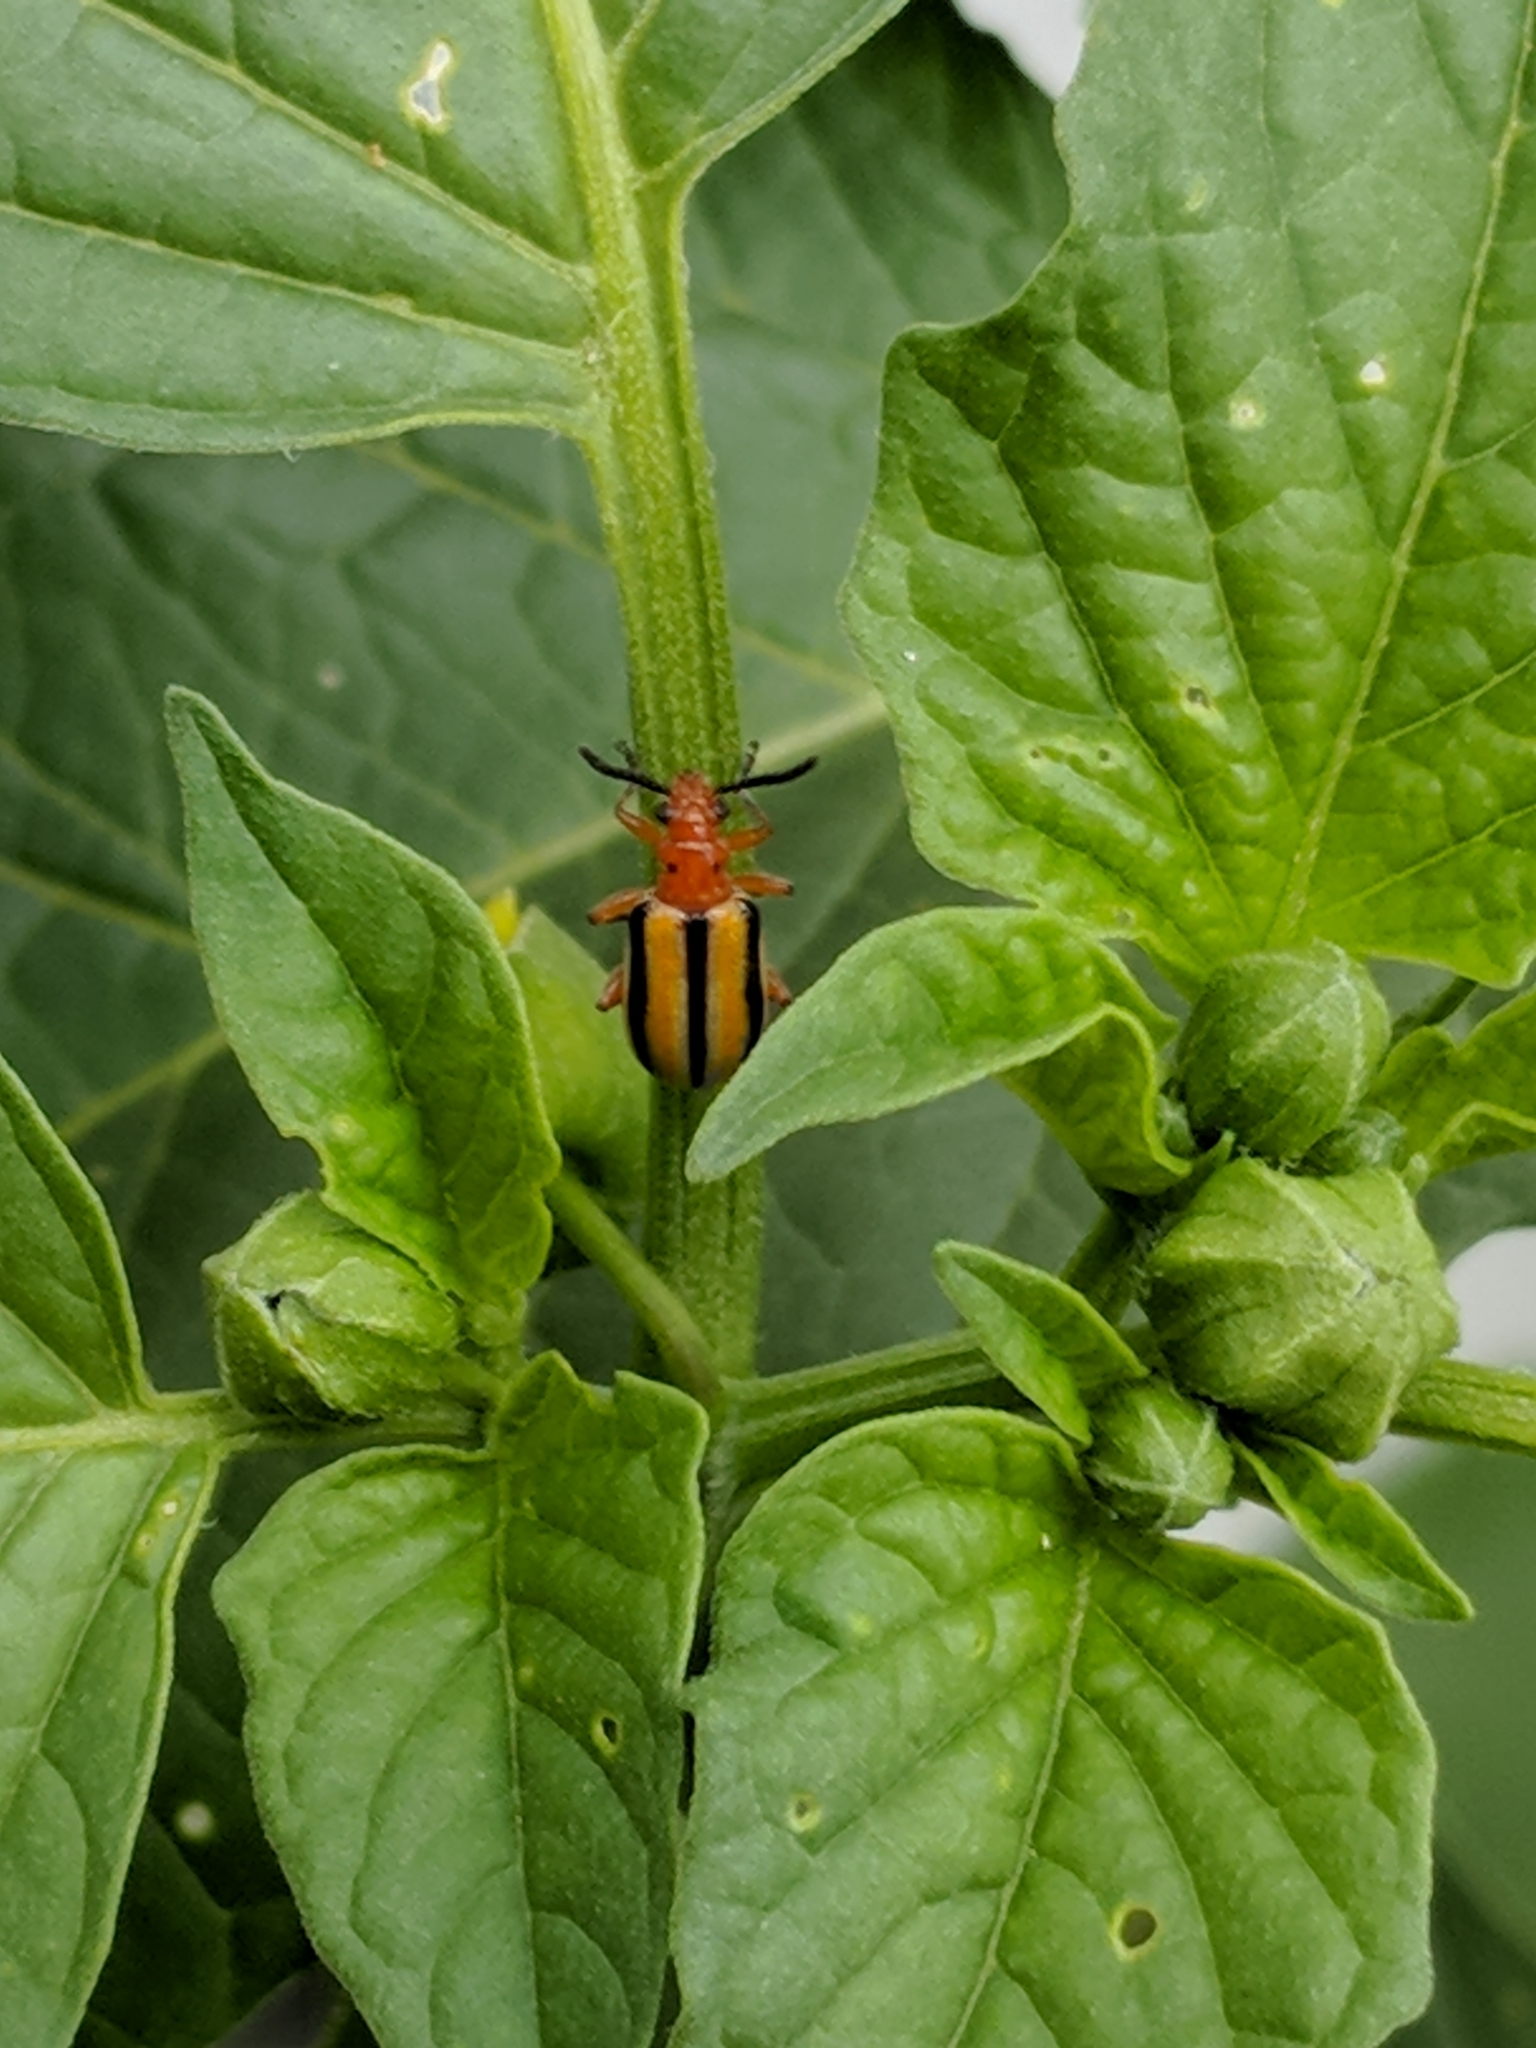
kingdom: Animalia
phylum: Arthropoda
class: Insecta
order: Coleoptera
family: Chrysomelidae
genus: Lema
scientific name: Lema daturaphila
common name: Leaf beetle
